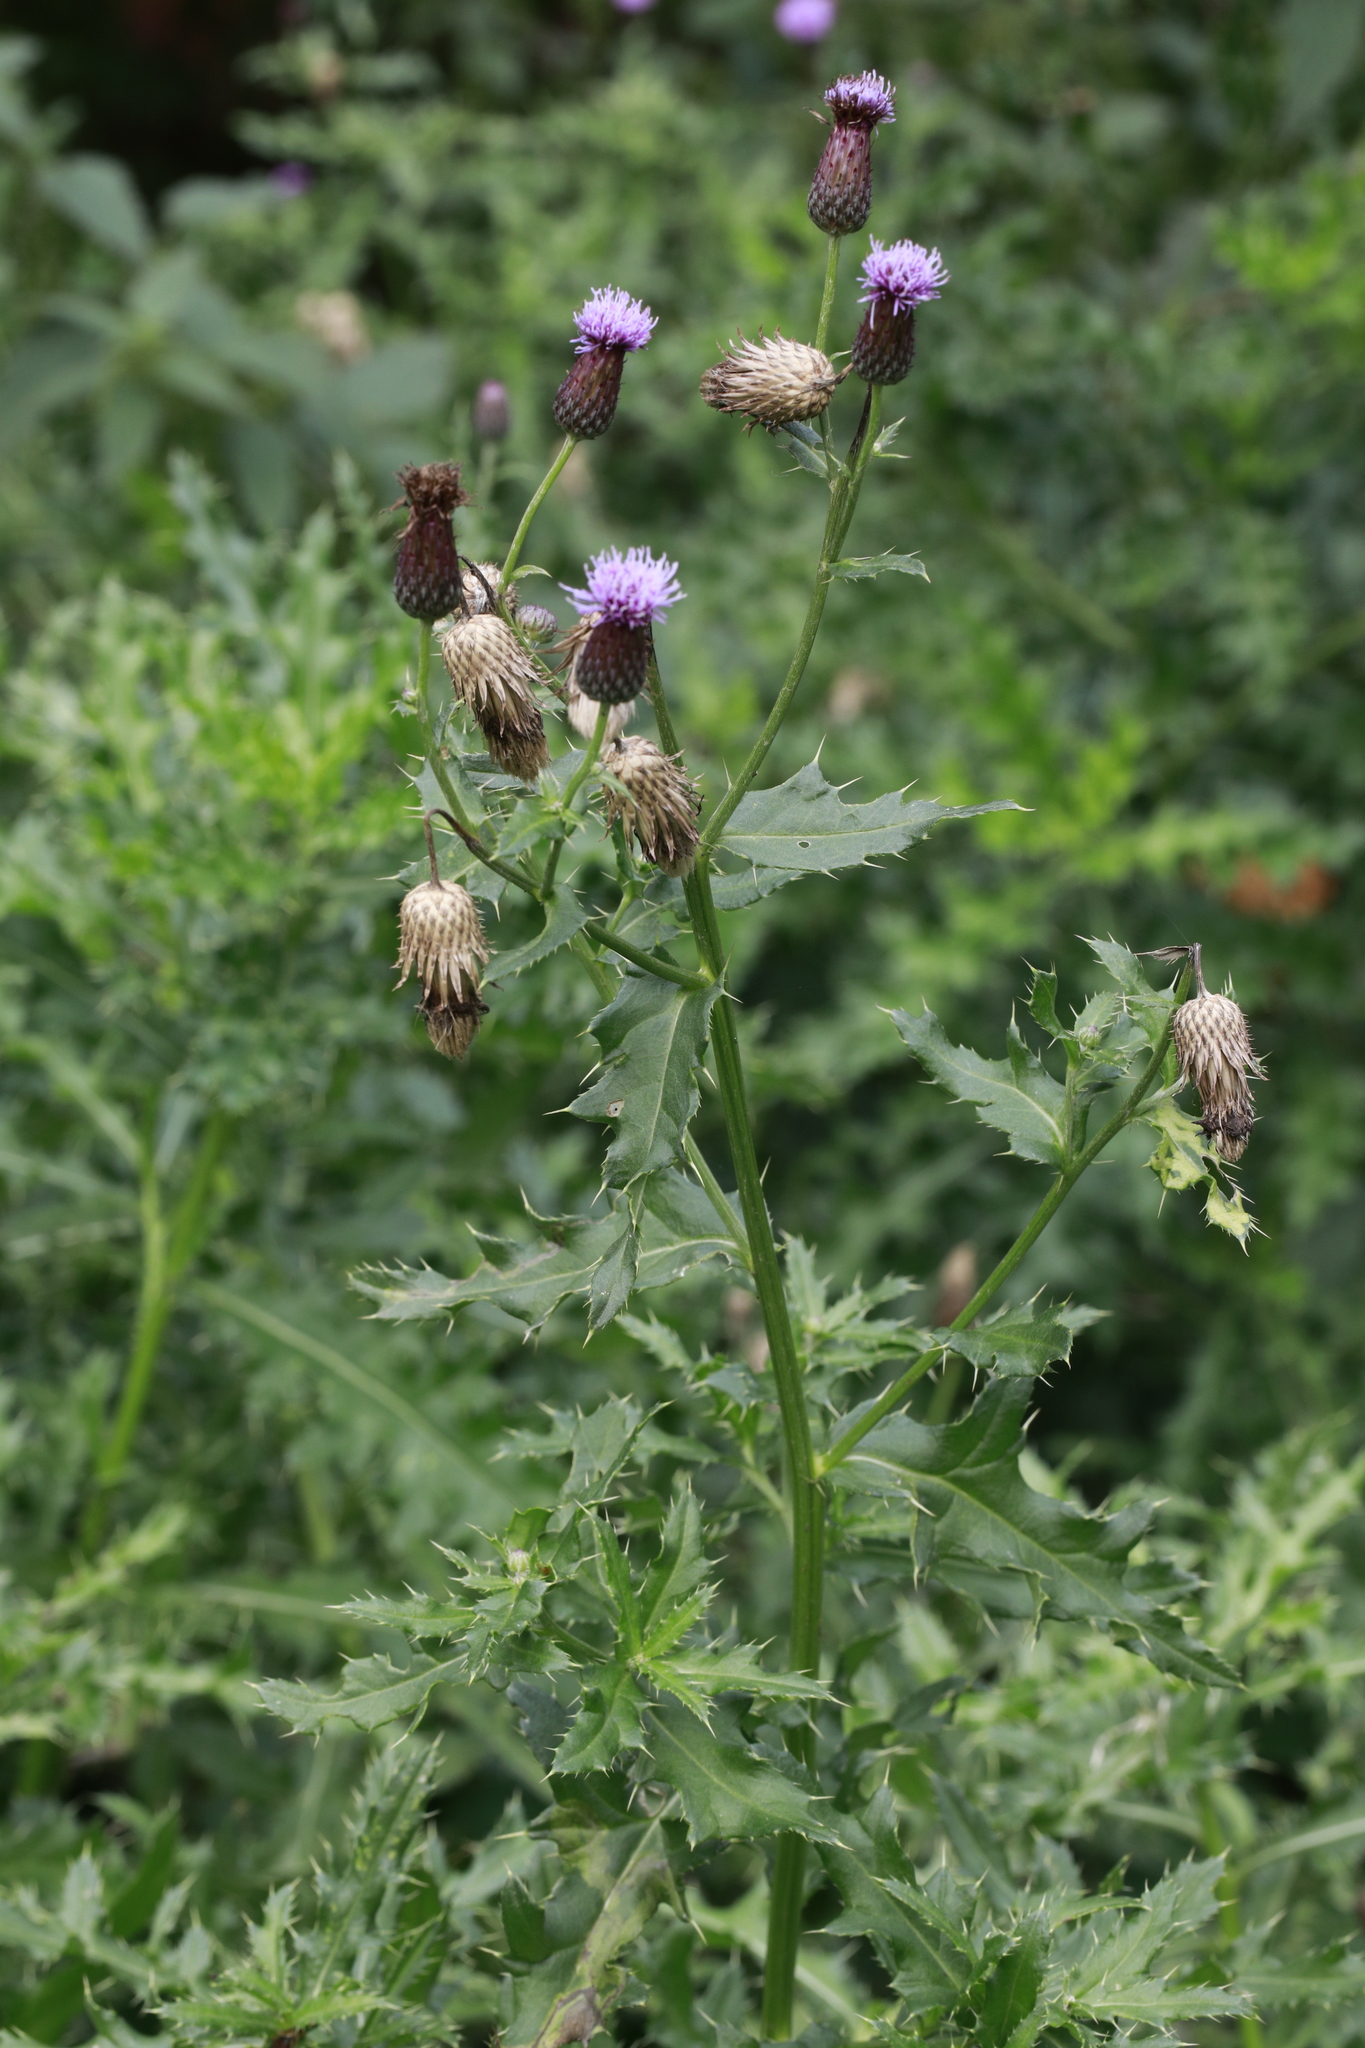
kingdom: Plantae
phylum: Tracheophyta
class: Magnoliopsida
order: Asterales
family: Asteraceae
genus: Cirsium
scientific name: Cirsium arvense
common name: Creeping thistle
